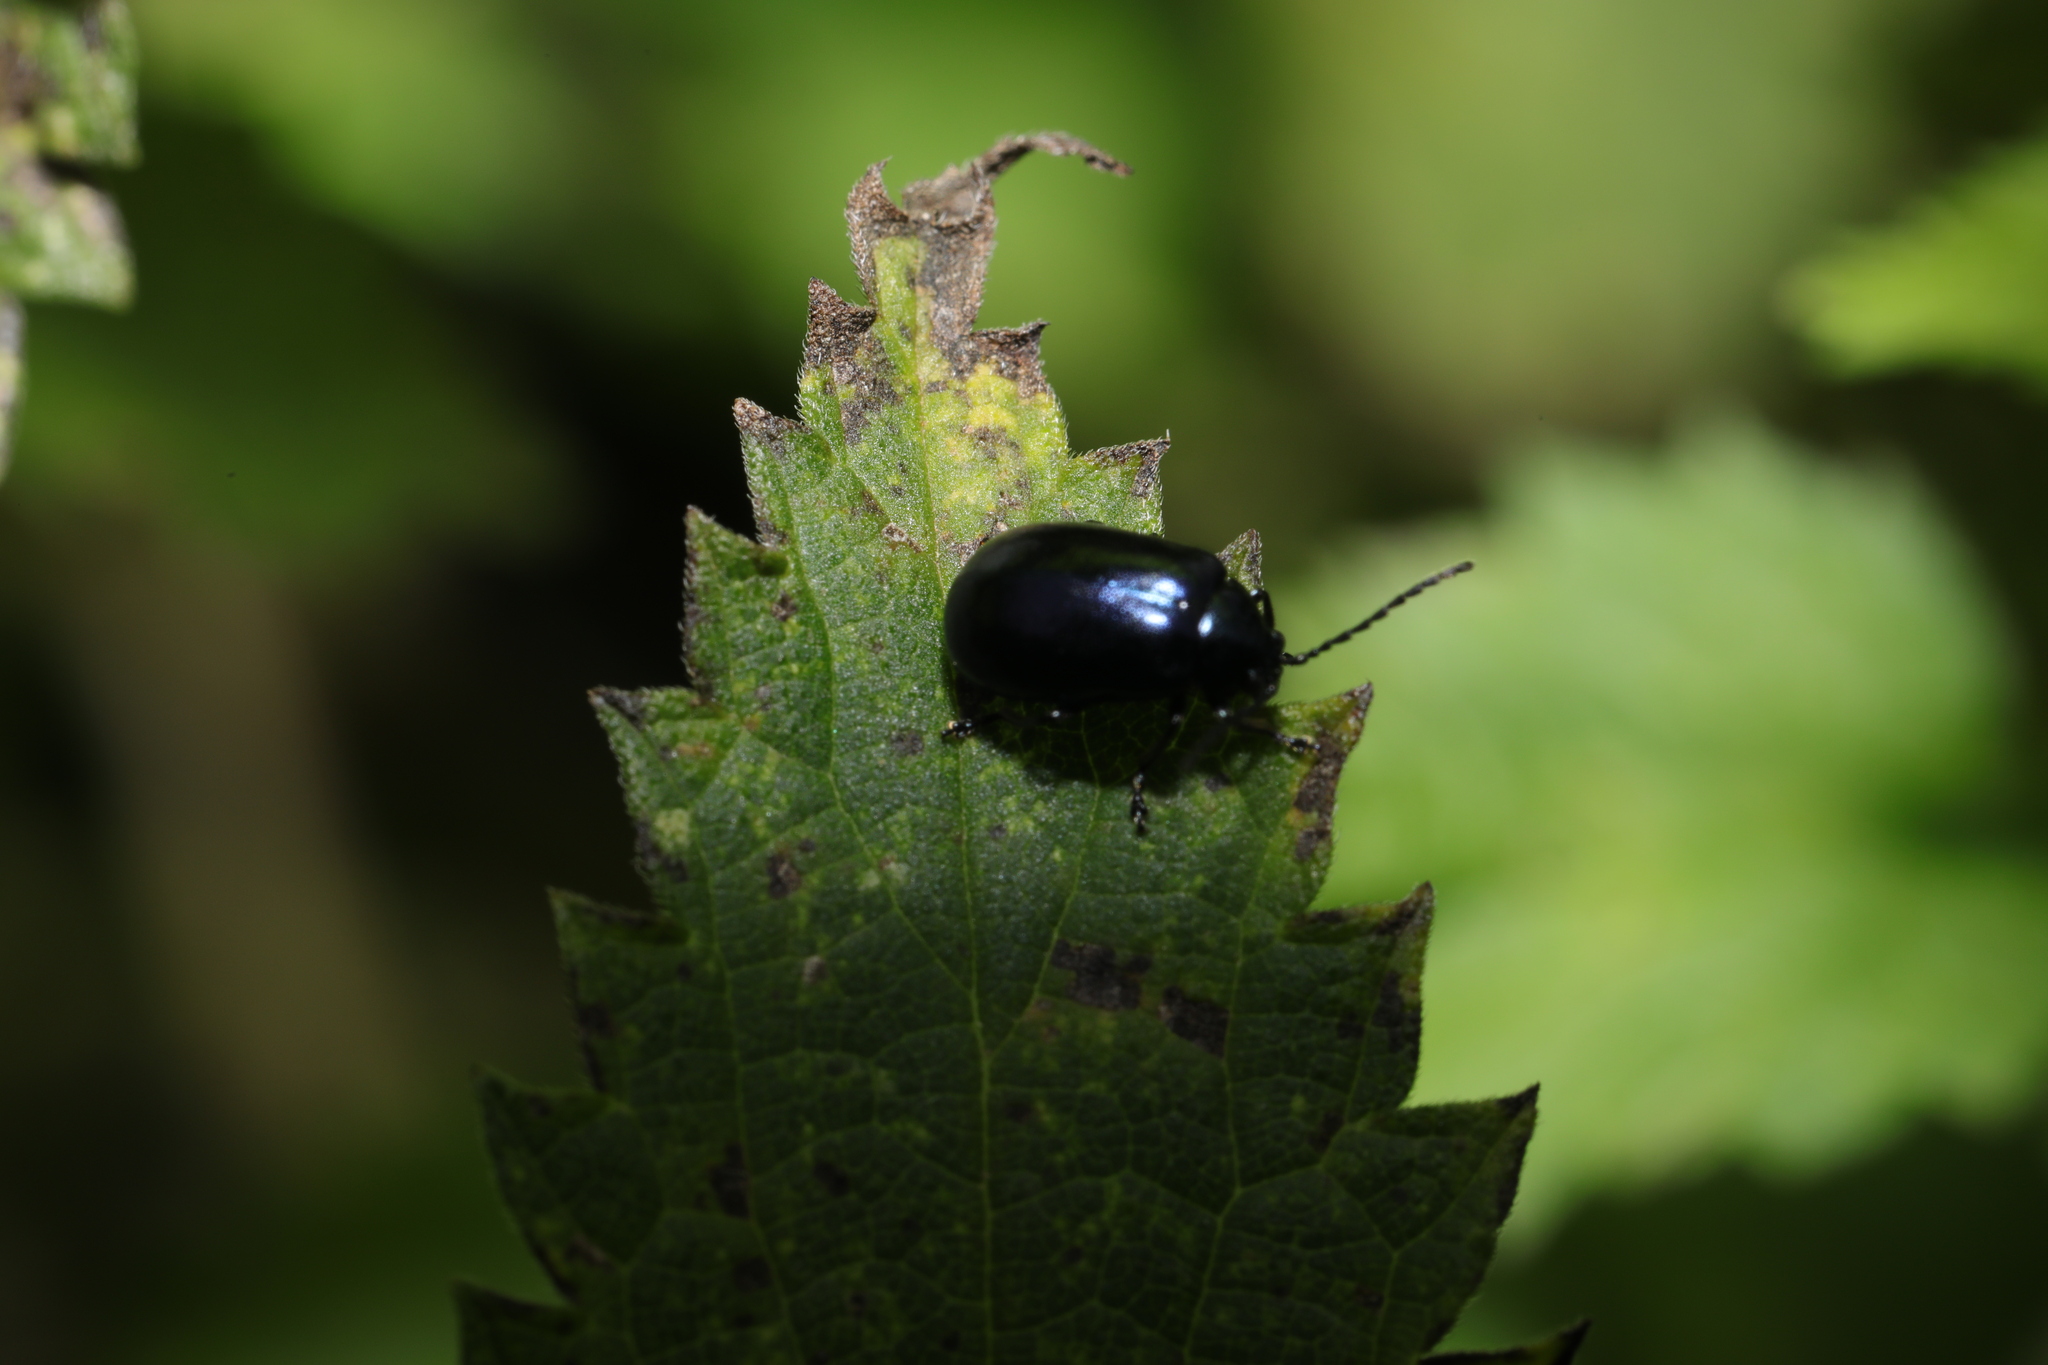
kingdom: Animalia
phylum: Arthropoda
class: Insecta
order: Coleoptera
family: Chrysomelidae
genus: Agelastica
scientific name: Agelastica alni
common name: Alder leaf beetle
